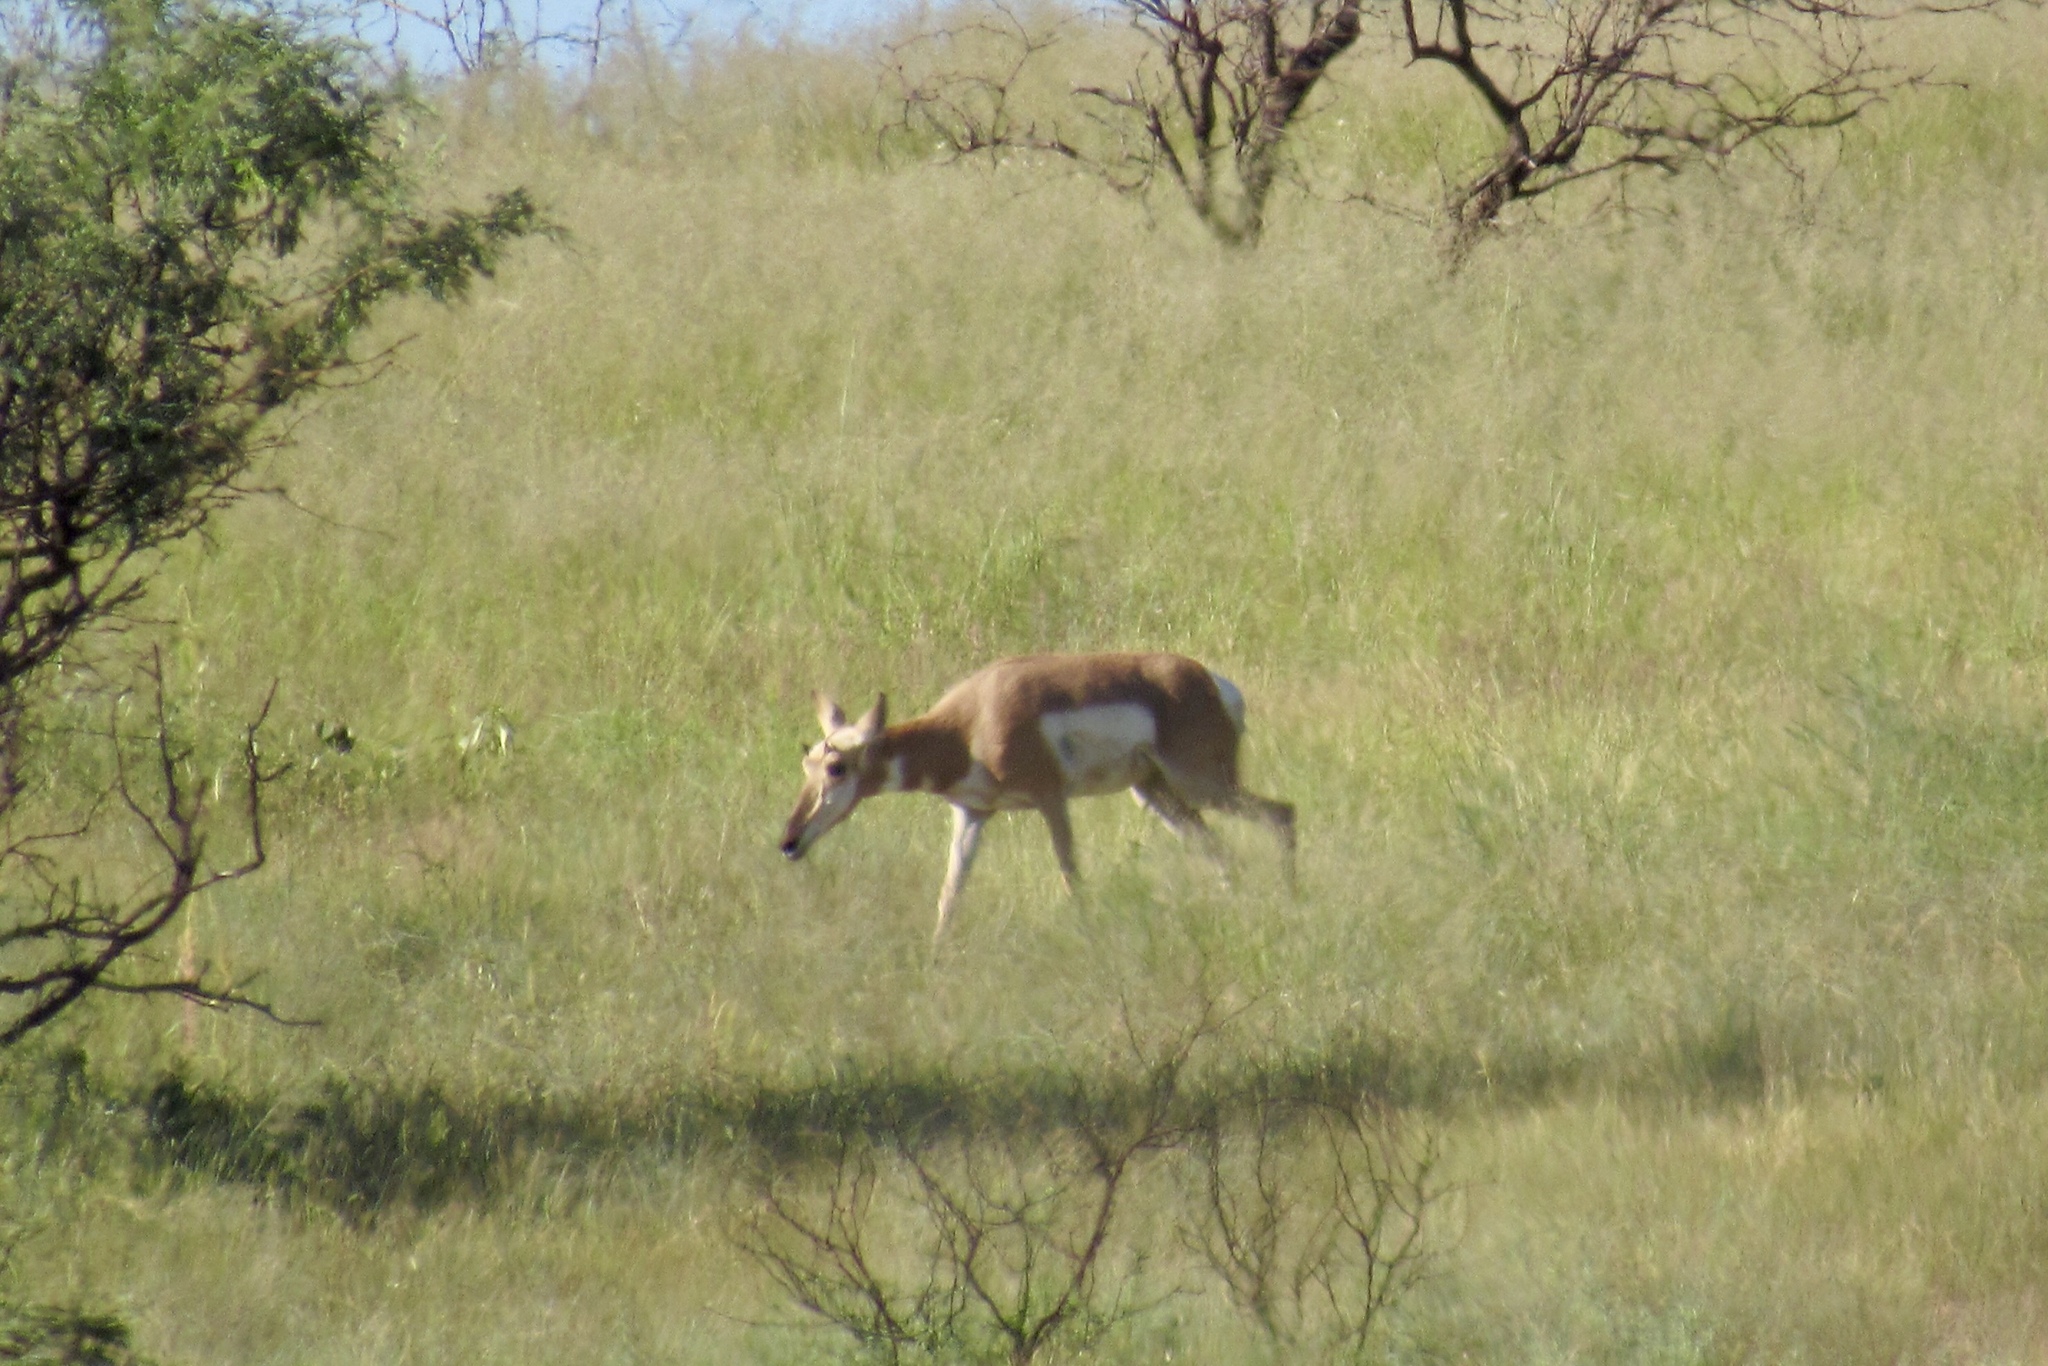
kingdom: Animalia
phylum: Chordata
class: Mammalia
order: Artiodactyla
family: Antilocapridae
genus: Antilocapra
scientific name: Antilocapra americana
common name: Pronghorn
